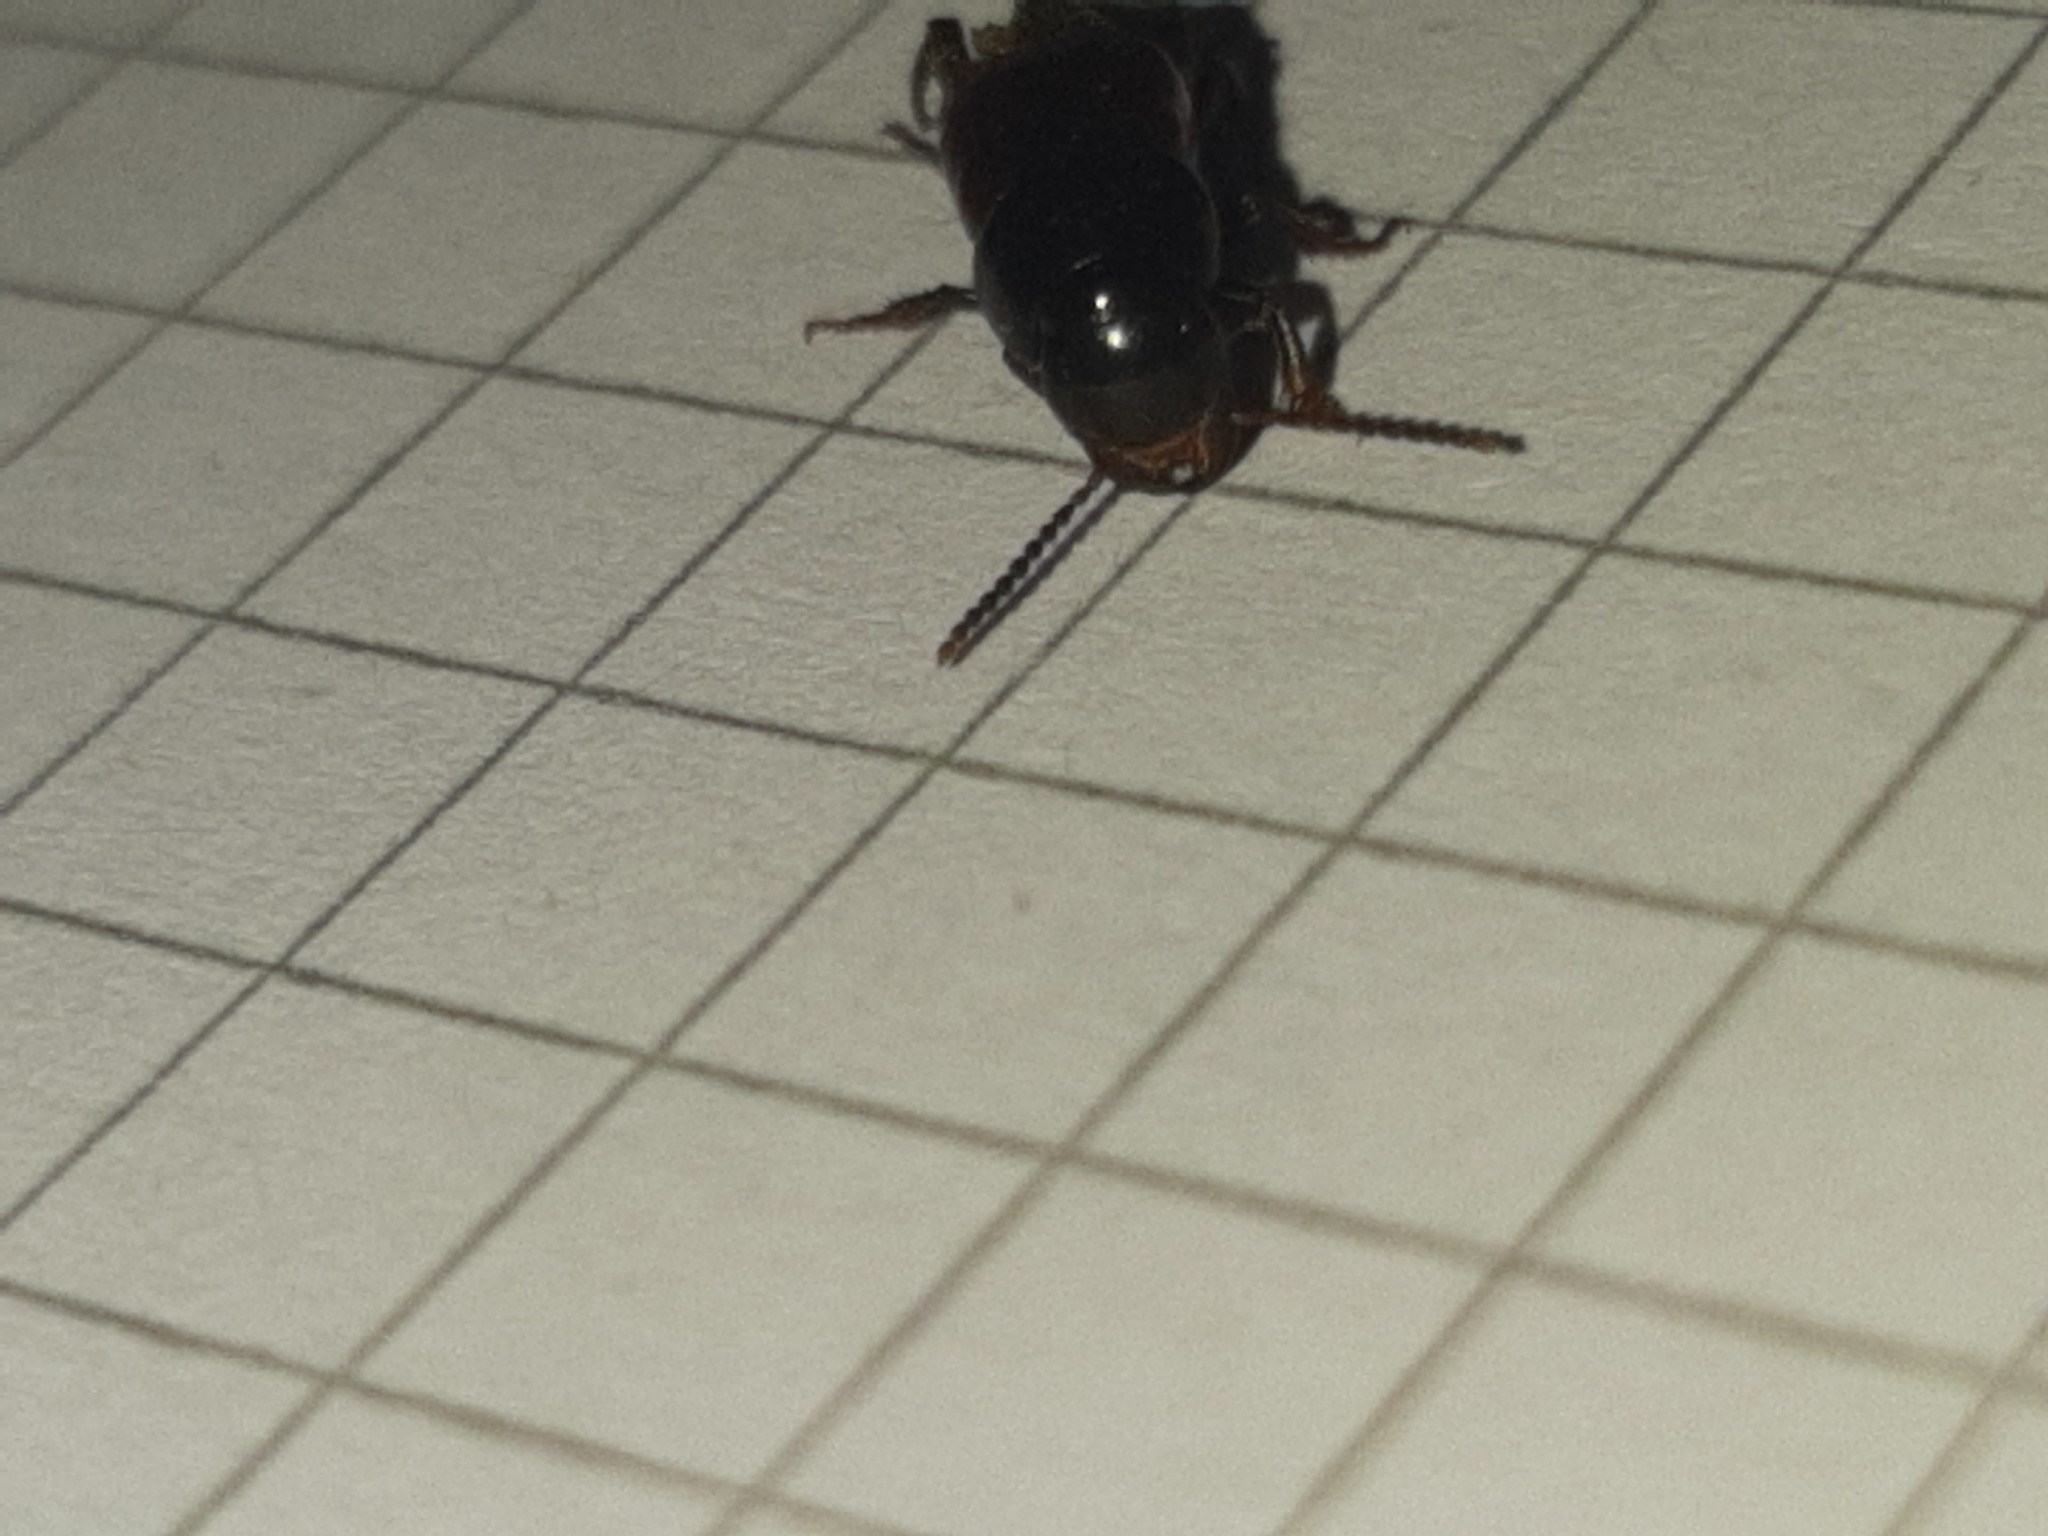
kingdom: Animalia
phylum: Arthropoda
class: Insecta
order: Coleoptera
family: Staphylinidae
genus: Astrapaeus
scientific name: Astrapaeus ulmi
